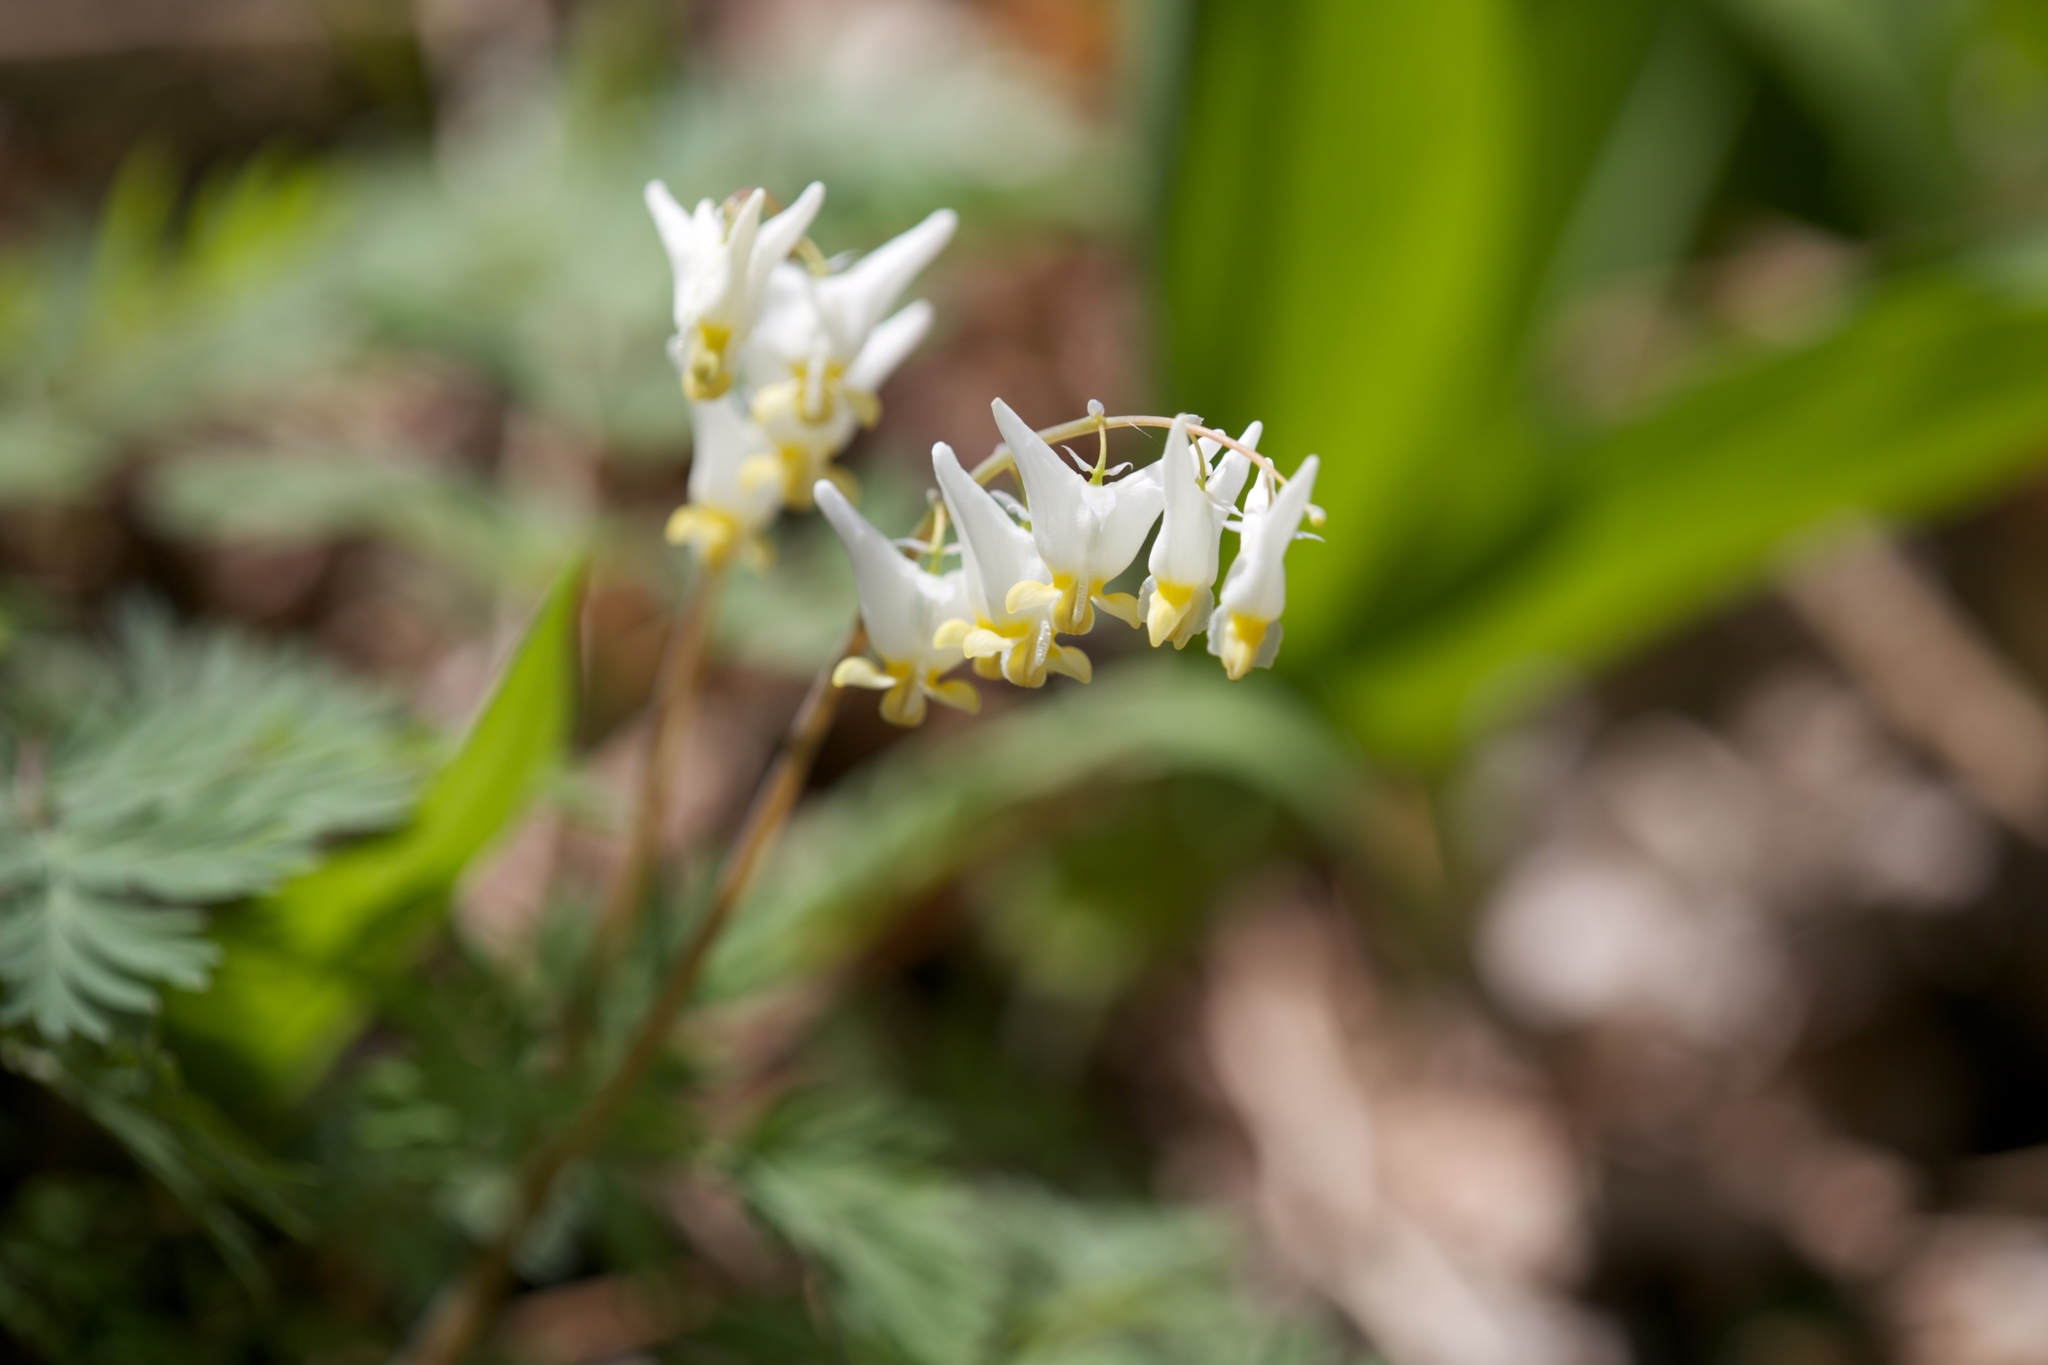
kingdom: Plantae
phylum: Tracheophyta
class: Magnoliopsida
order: Ranunculales
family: Papaveraceae
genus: Dicentra
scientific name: Dicentra cucullaria
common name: Dutchman's breeches
